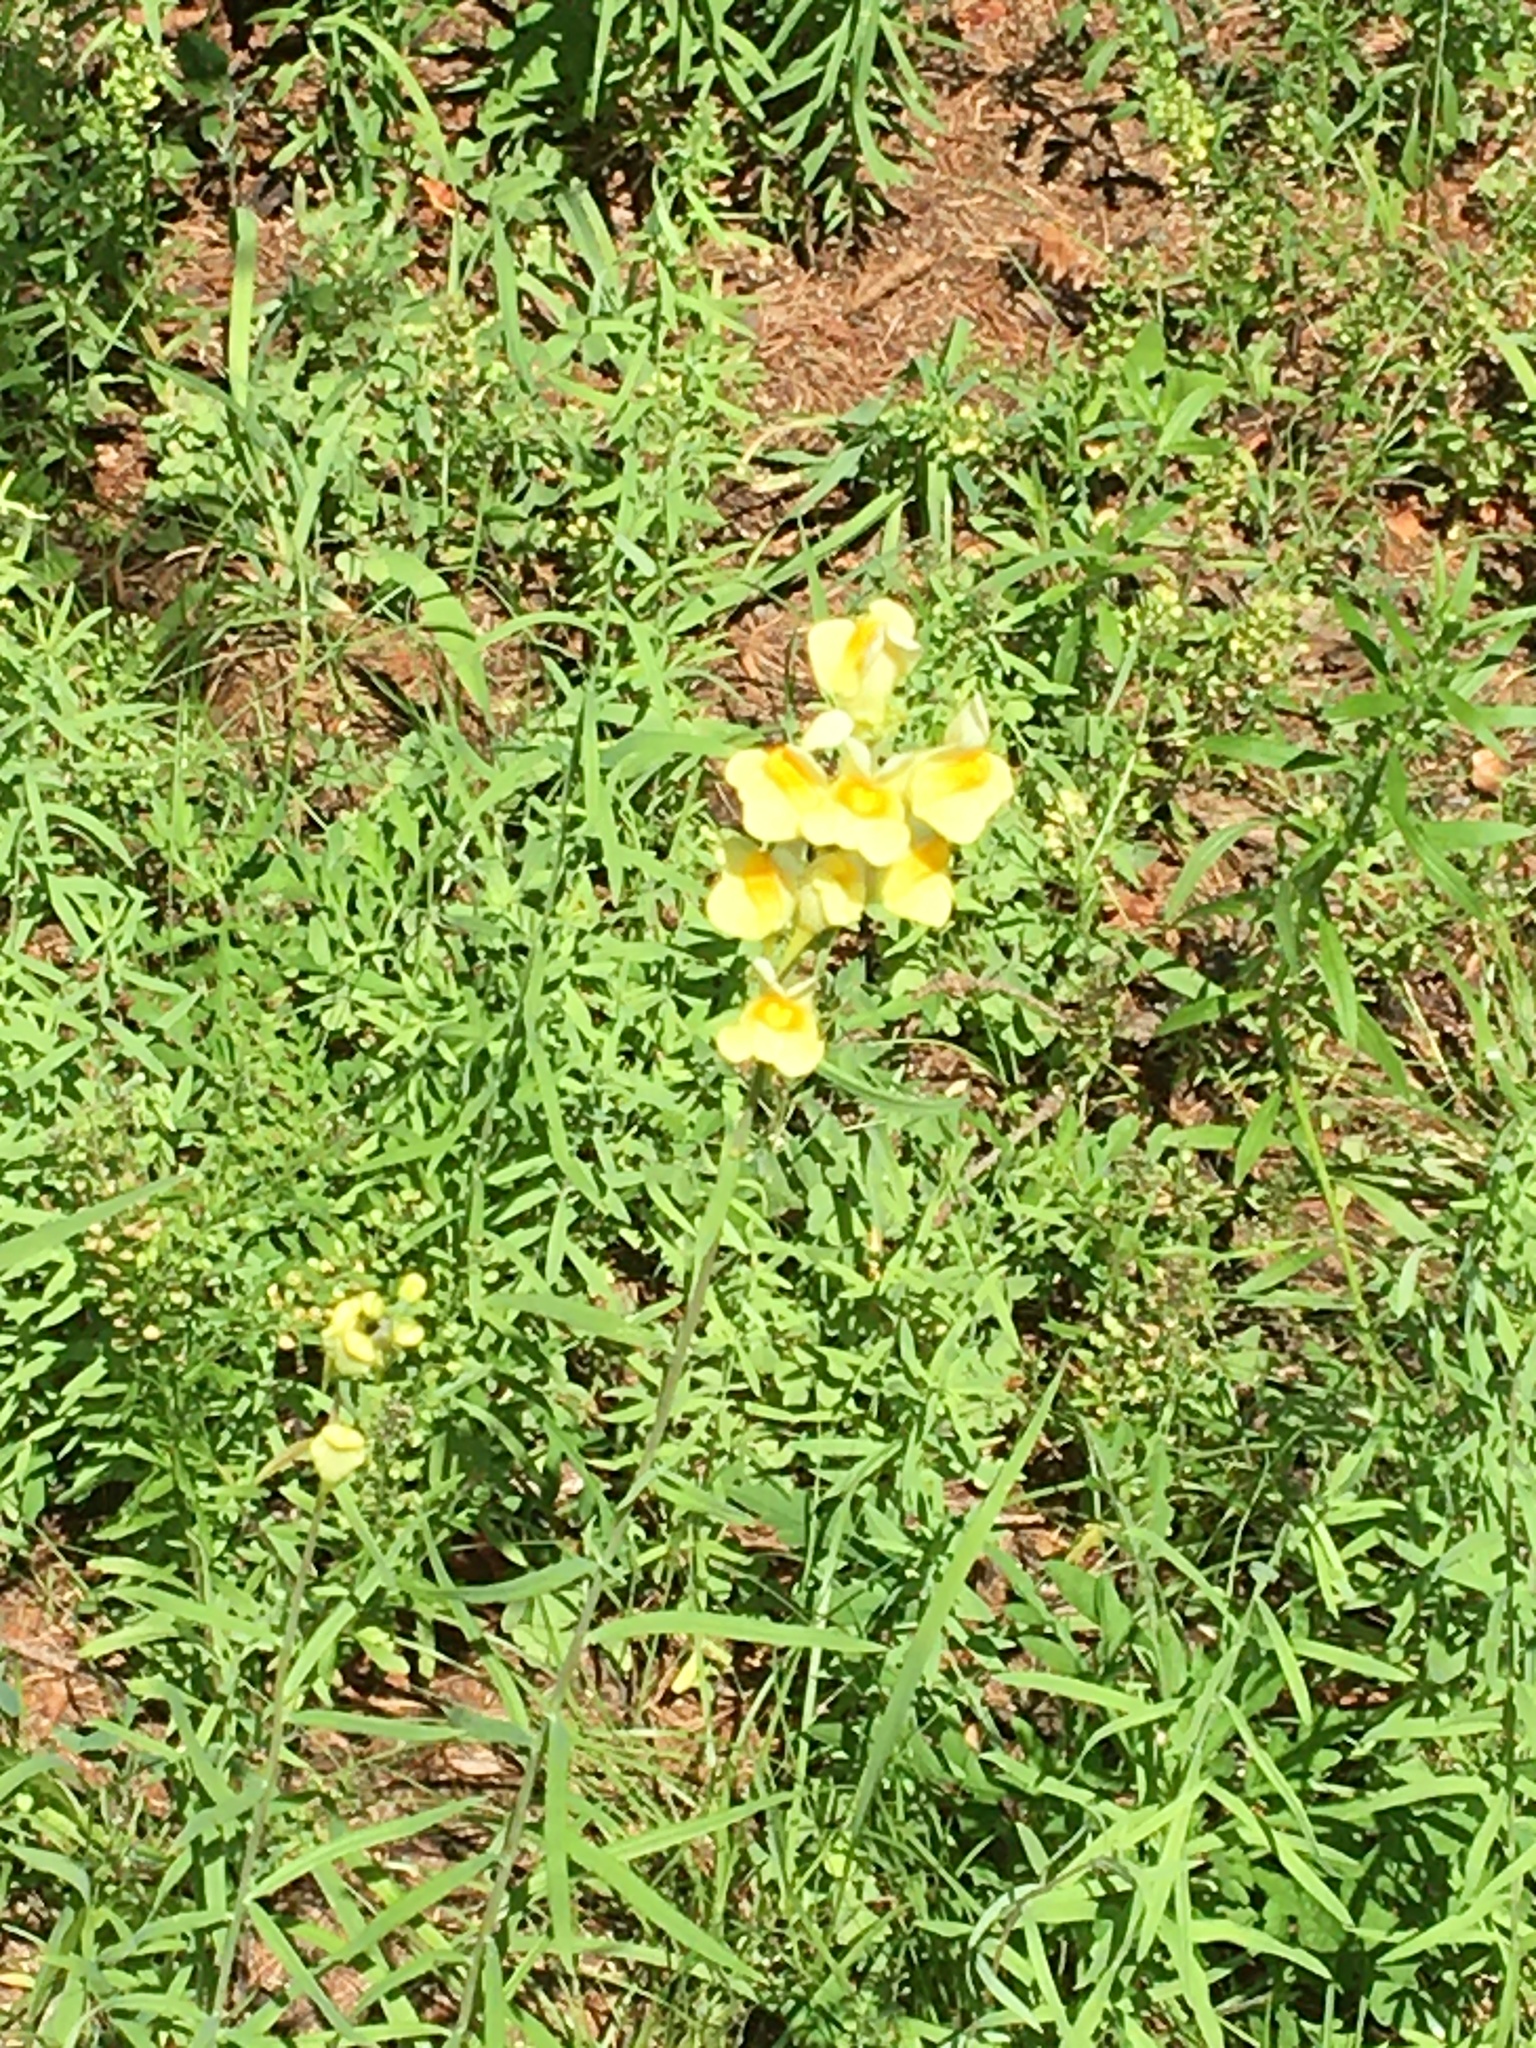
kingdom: Plantae
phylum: Tracheophyta
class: Magnoliopsida
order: Lamiales
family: Plantaginaceae
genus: Linaria
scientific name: Linaria vulgaris
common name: Butter and eggs
